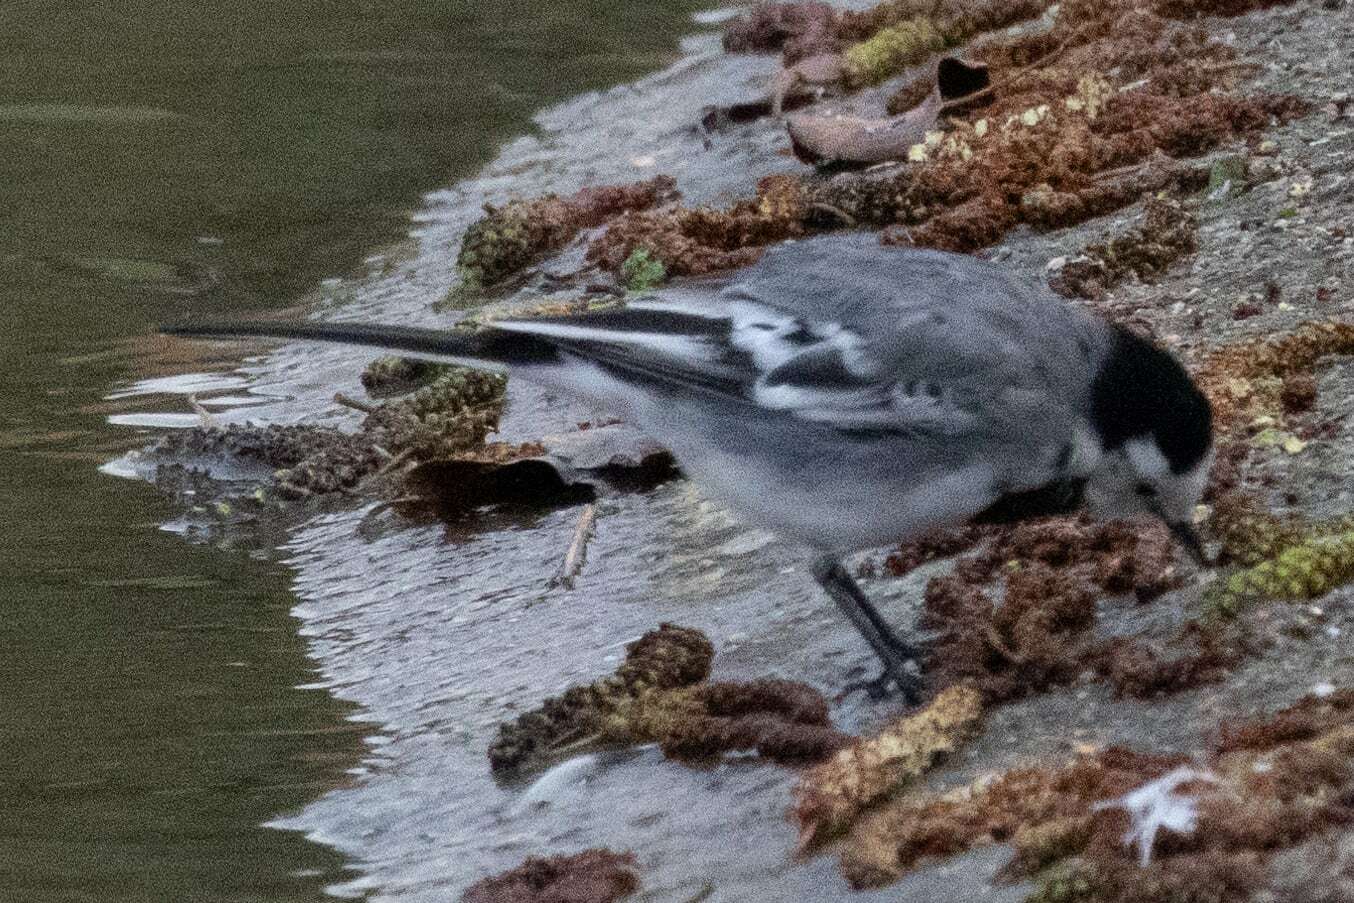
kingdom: Animalia
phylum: Chordata
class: Aves
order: Passeriformes
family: Motacillidae
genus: Motacilla
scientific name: Motacilla alba
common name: White wagtail
